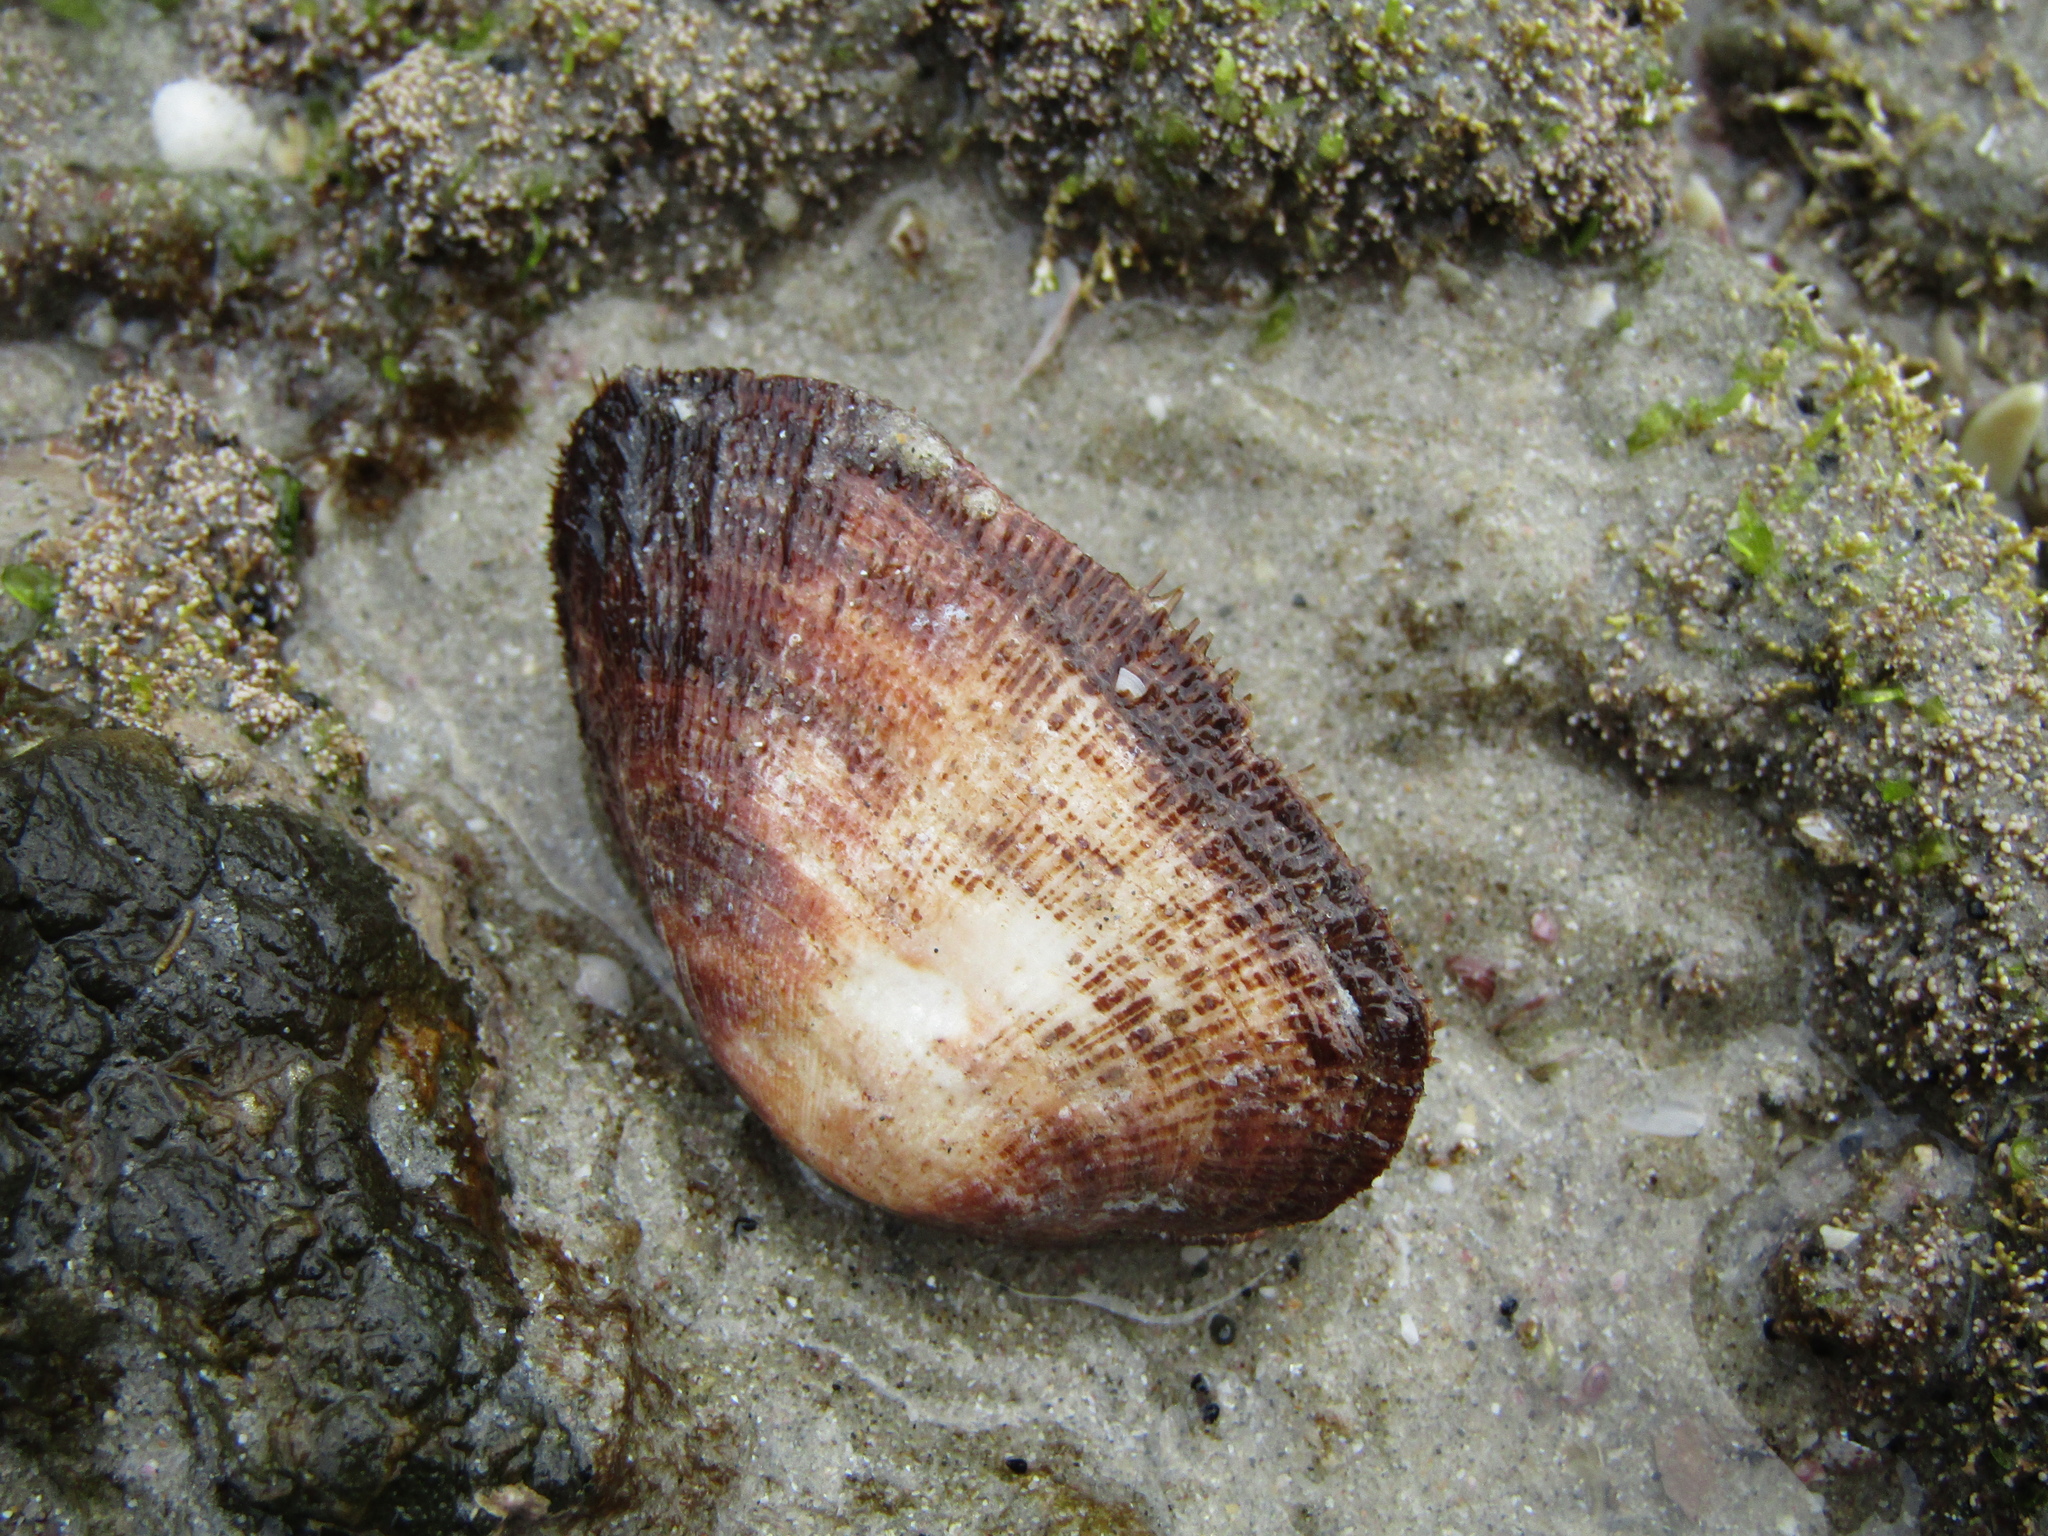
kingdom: Animalia
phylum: Mollusca
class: Bivalvia
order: Arcida
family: Arcidae
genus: Barbatia
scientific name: Barbatia novaezealandiae
